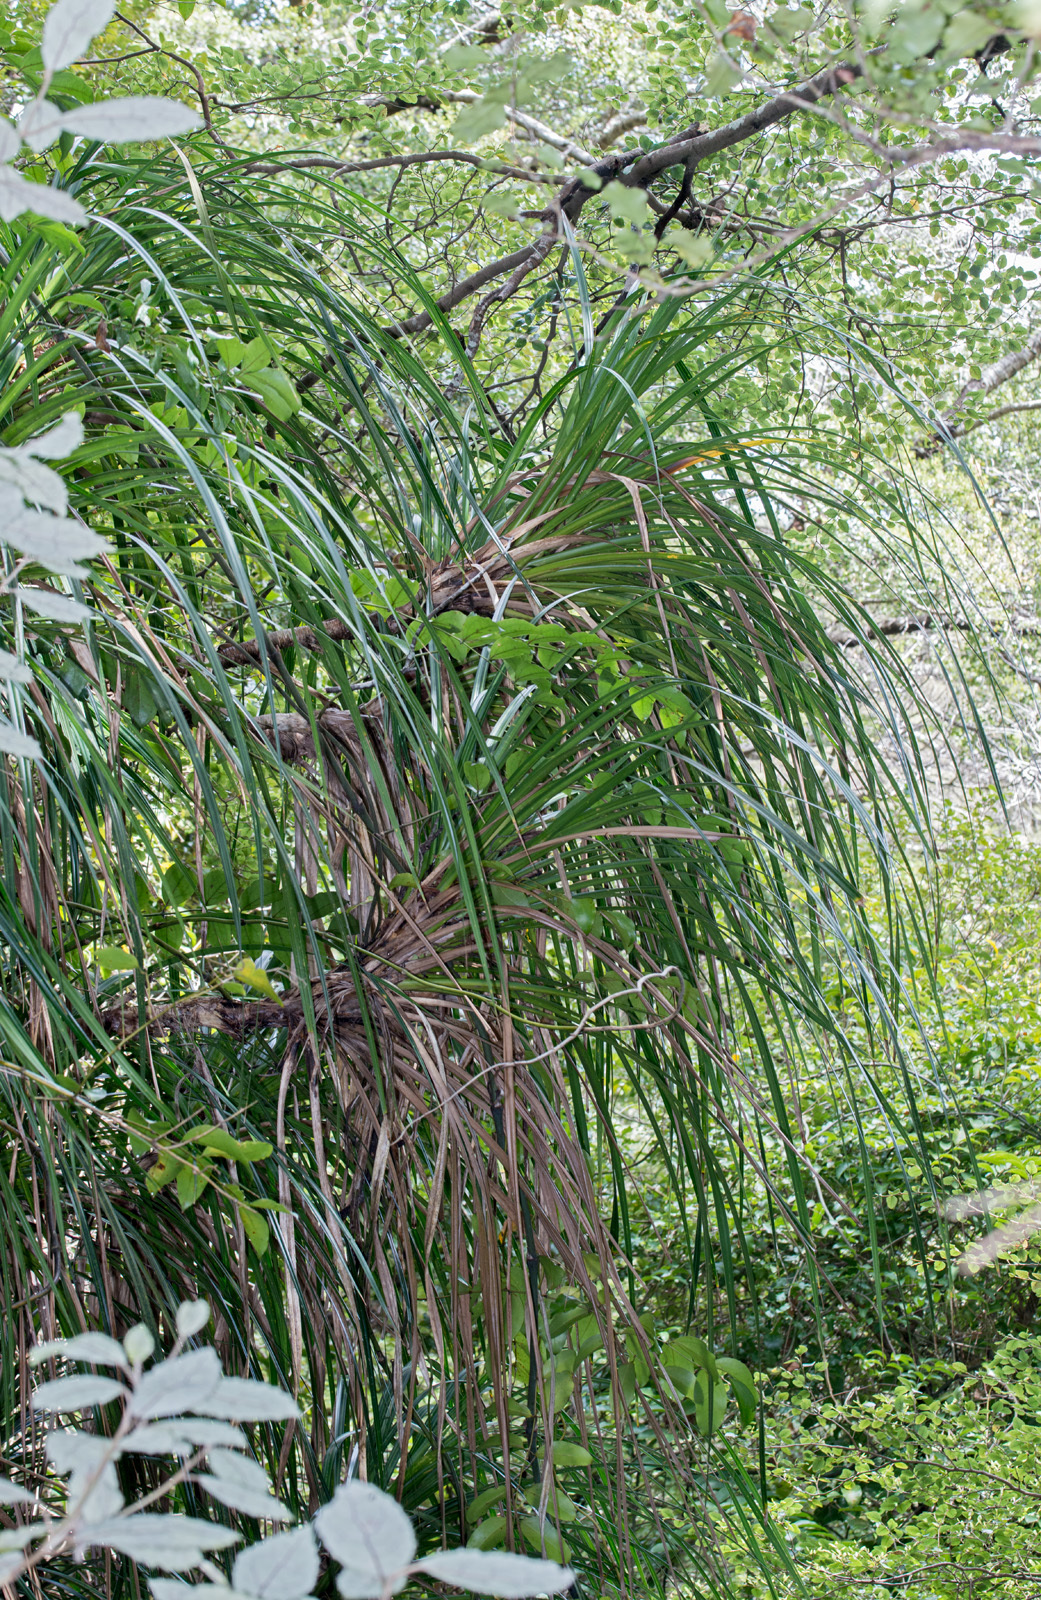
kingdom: Plantae
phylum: Tracheophyta
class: Liliopsida
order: Pandanales
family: Pandanaceae
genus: Freycinetia
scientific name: Freycinetia banksii
